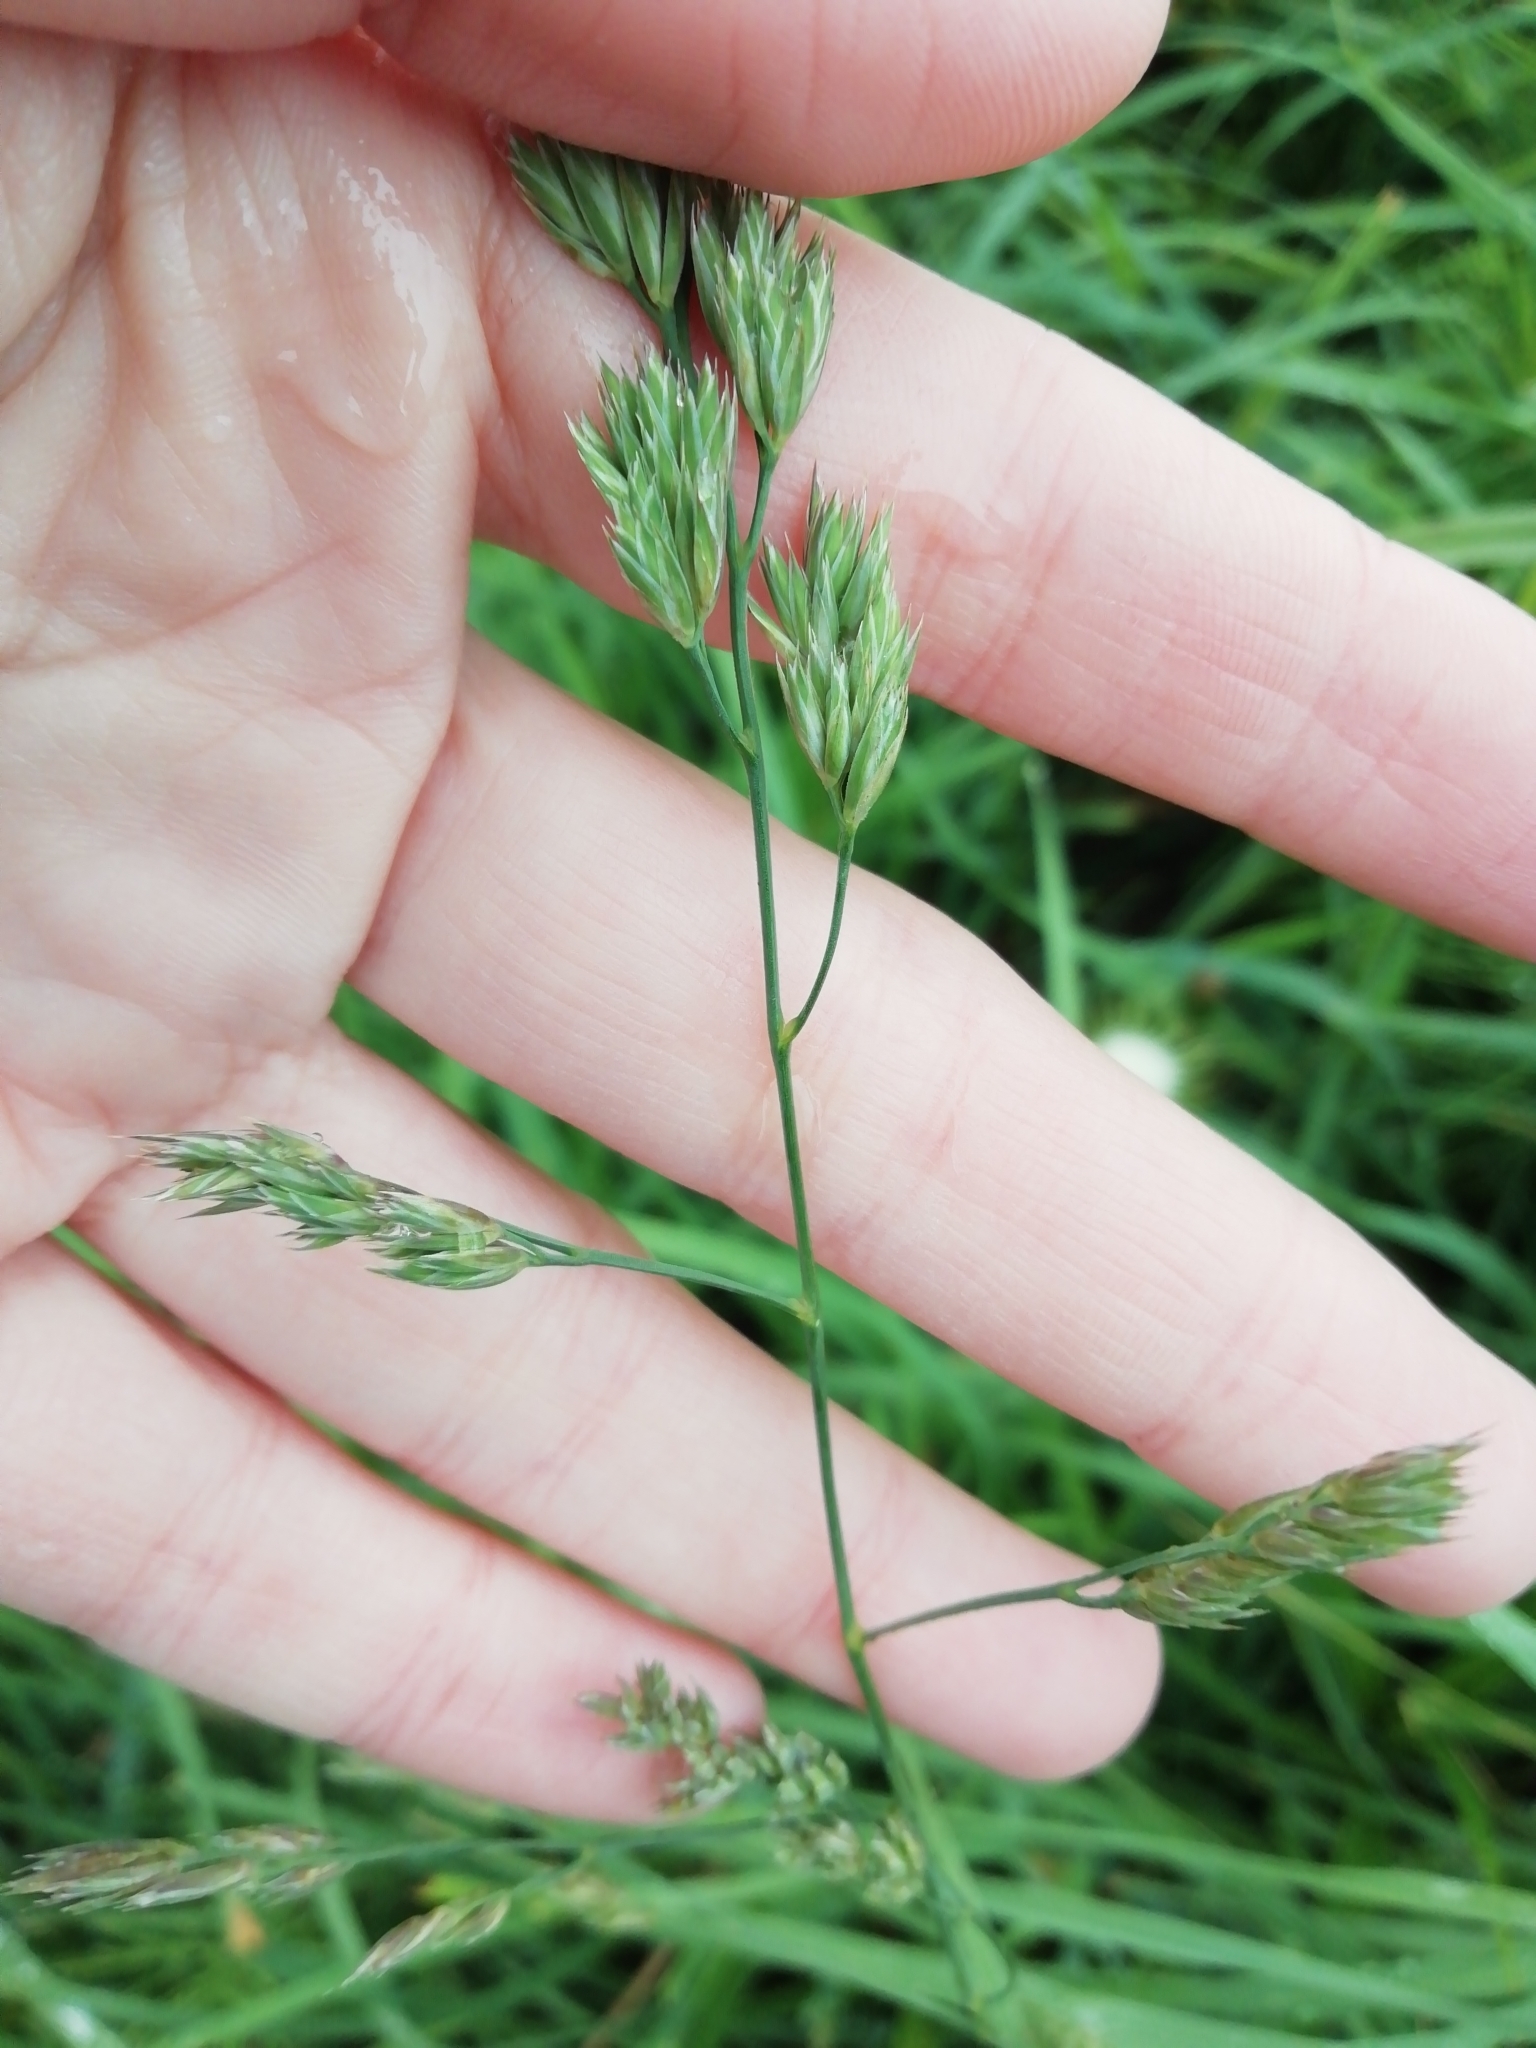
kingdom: Plantae
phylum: Tracheophyta
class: Liliopsida
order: Poales
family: Poaceae
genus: Dactylis
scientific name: Dactylis glomerata
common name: Orchardgrass
